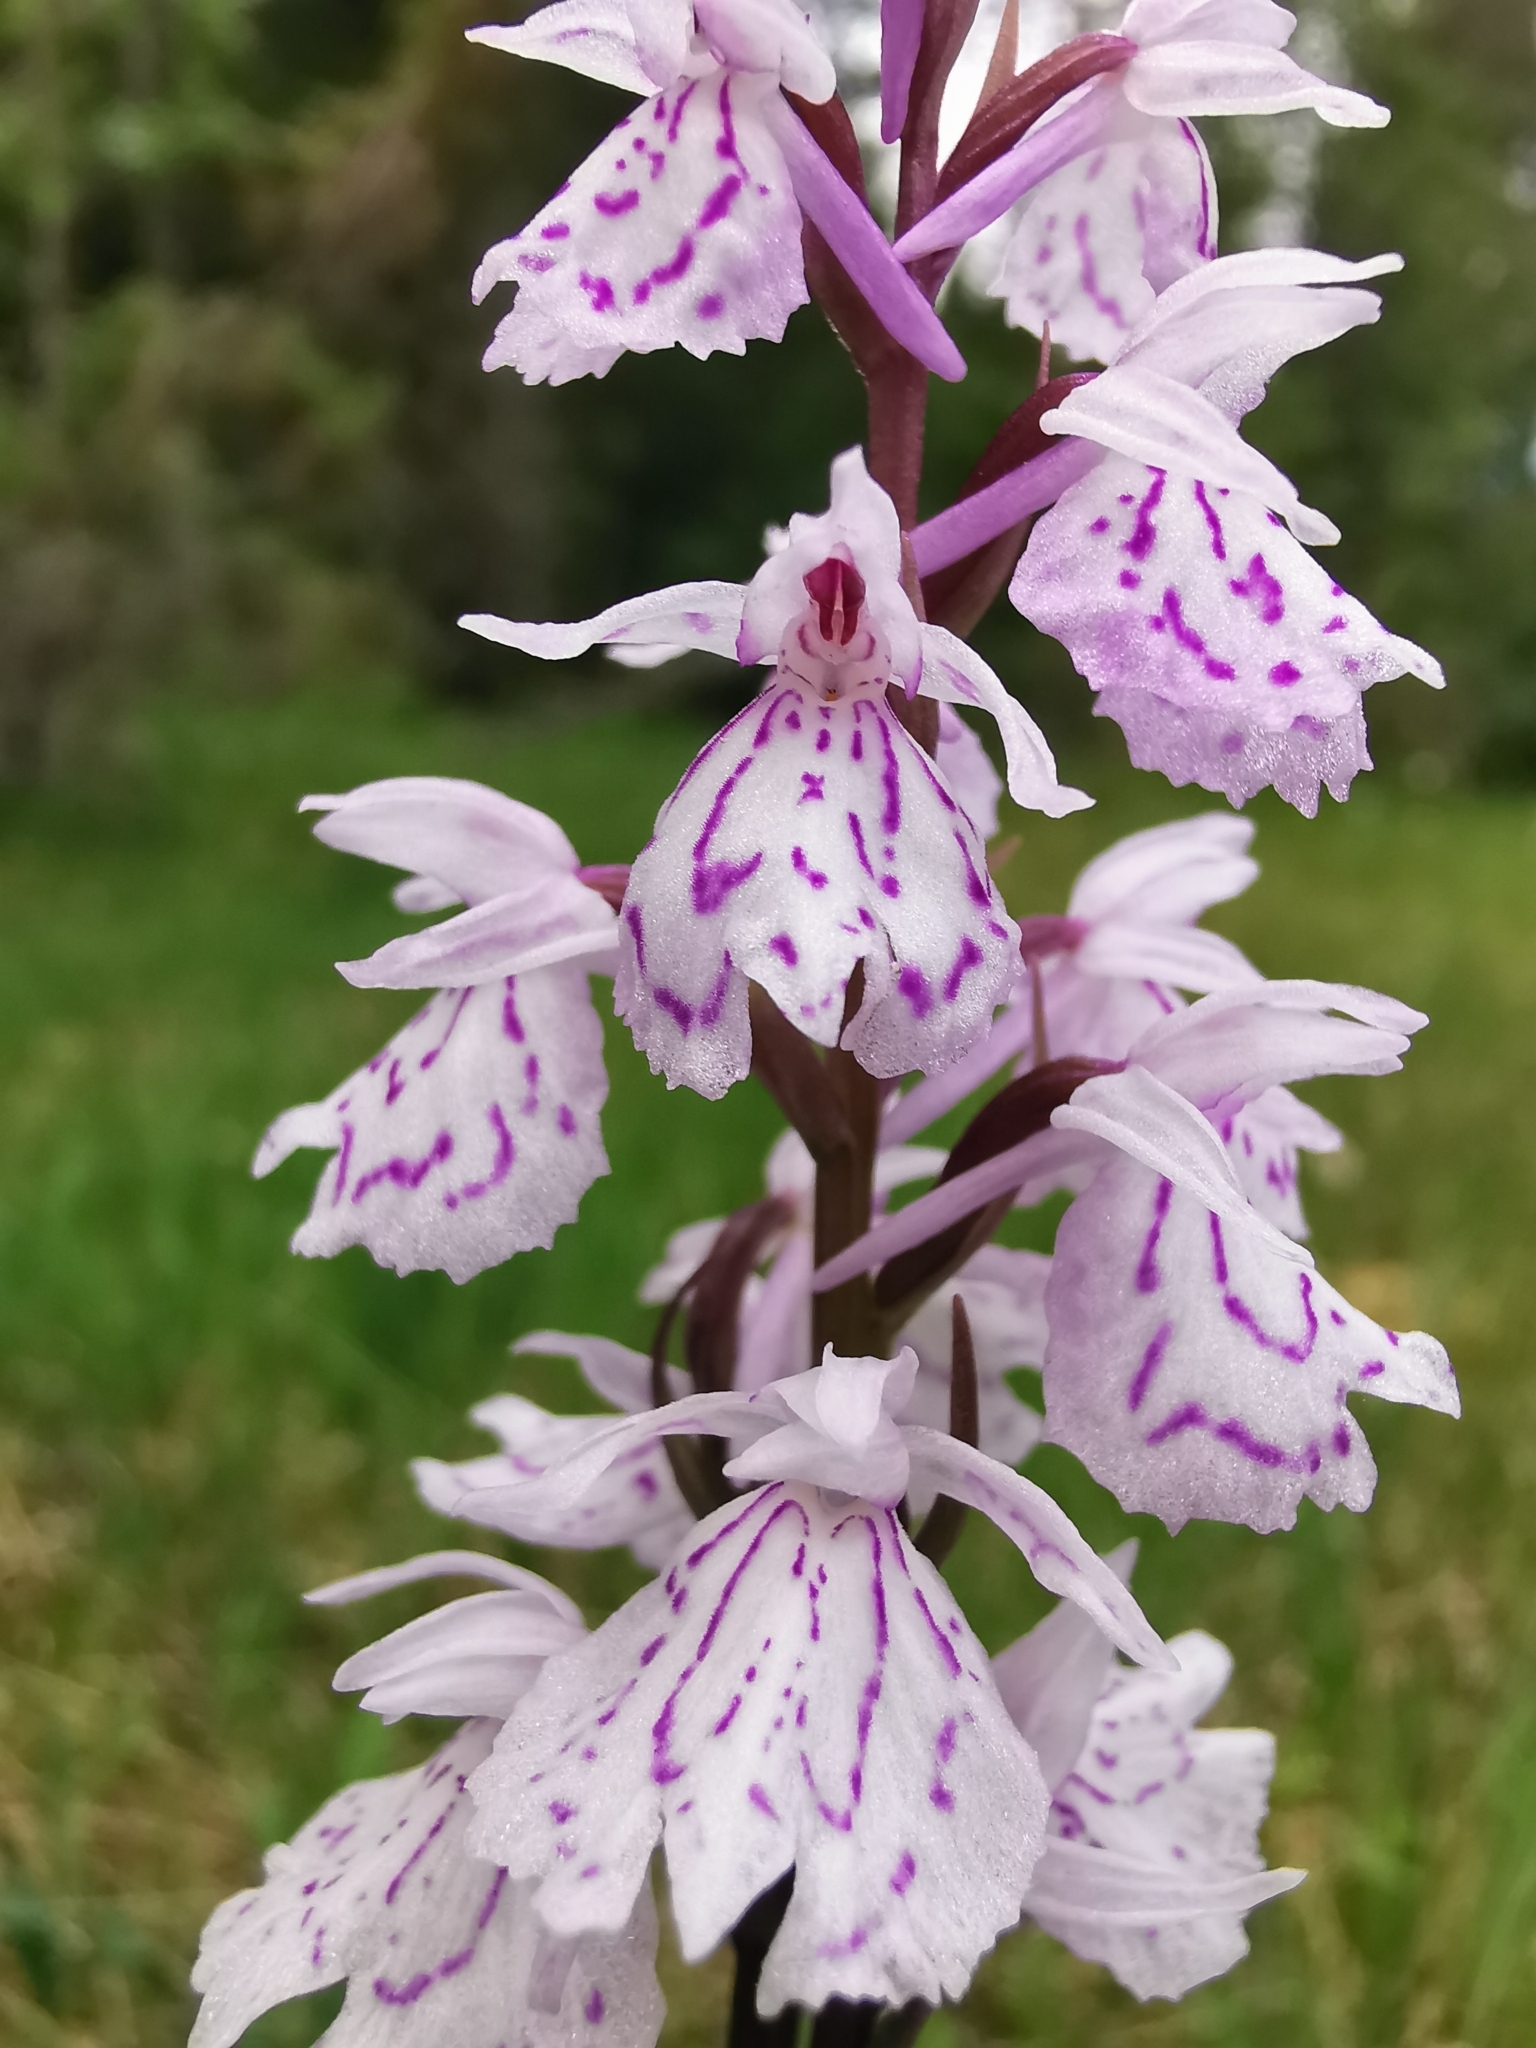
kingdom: Plantae
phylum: Tracheophyta
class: Liliopsida
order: Asparagales
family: Orchidaceae
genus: Dactylorhiza
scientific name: Dactylorhiza maculata
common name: Heath spotted-orchid
